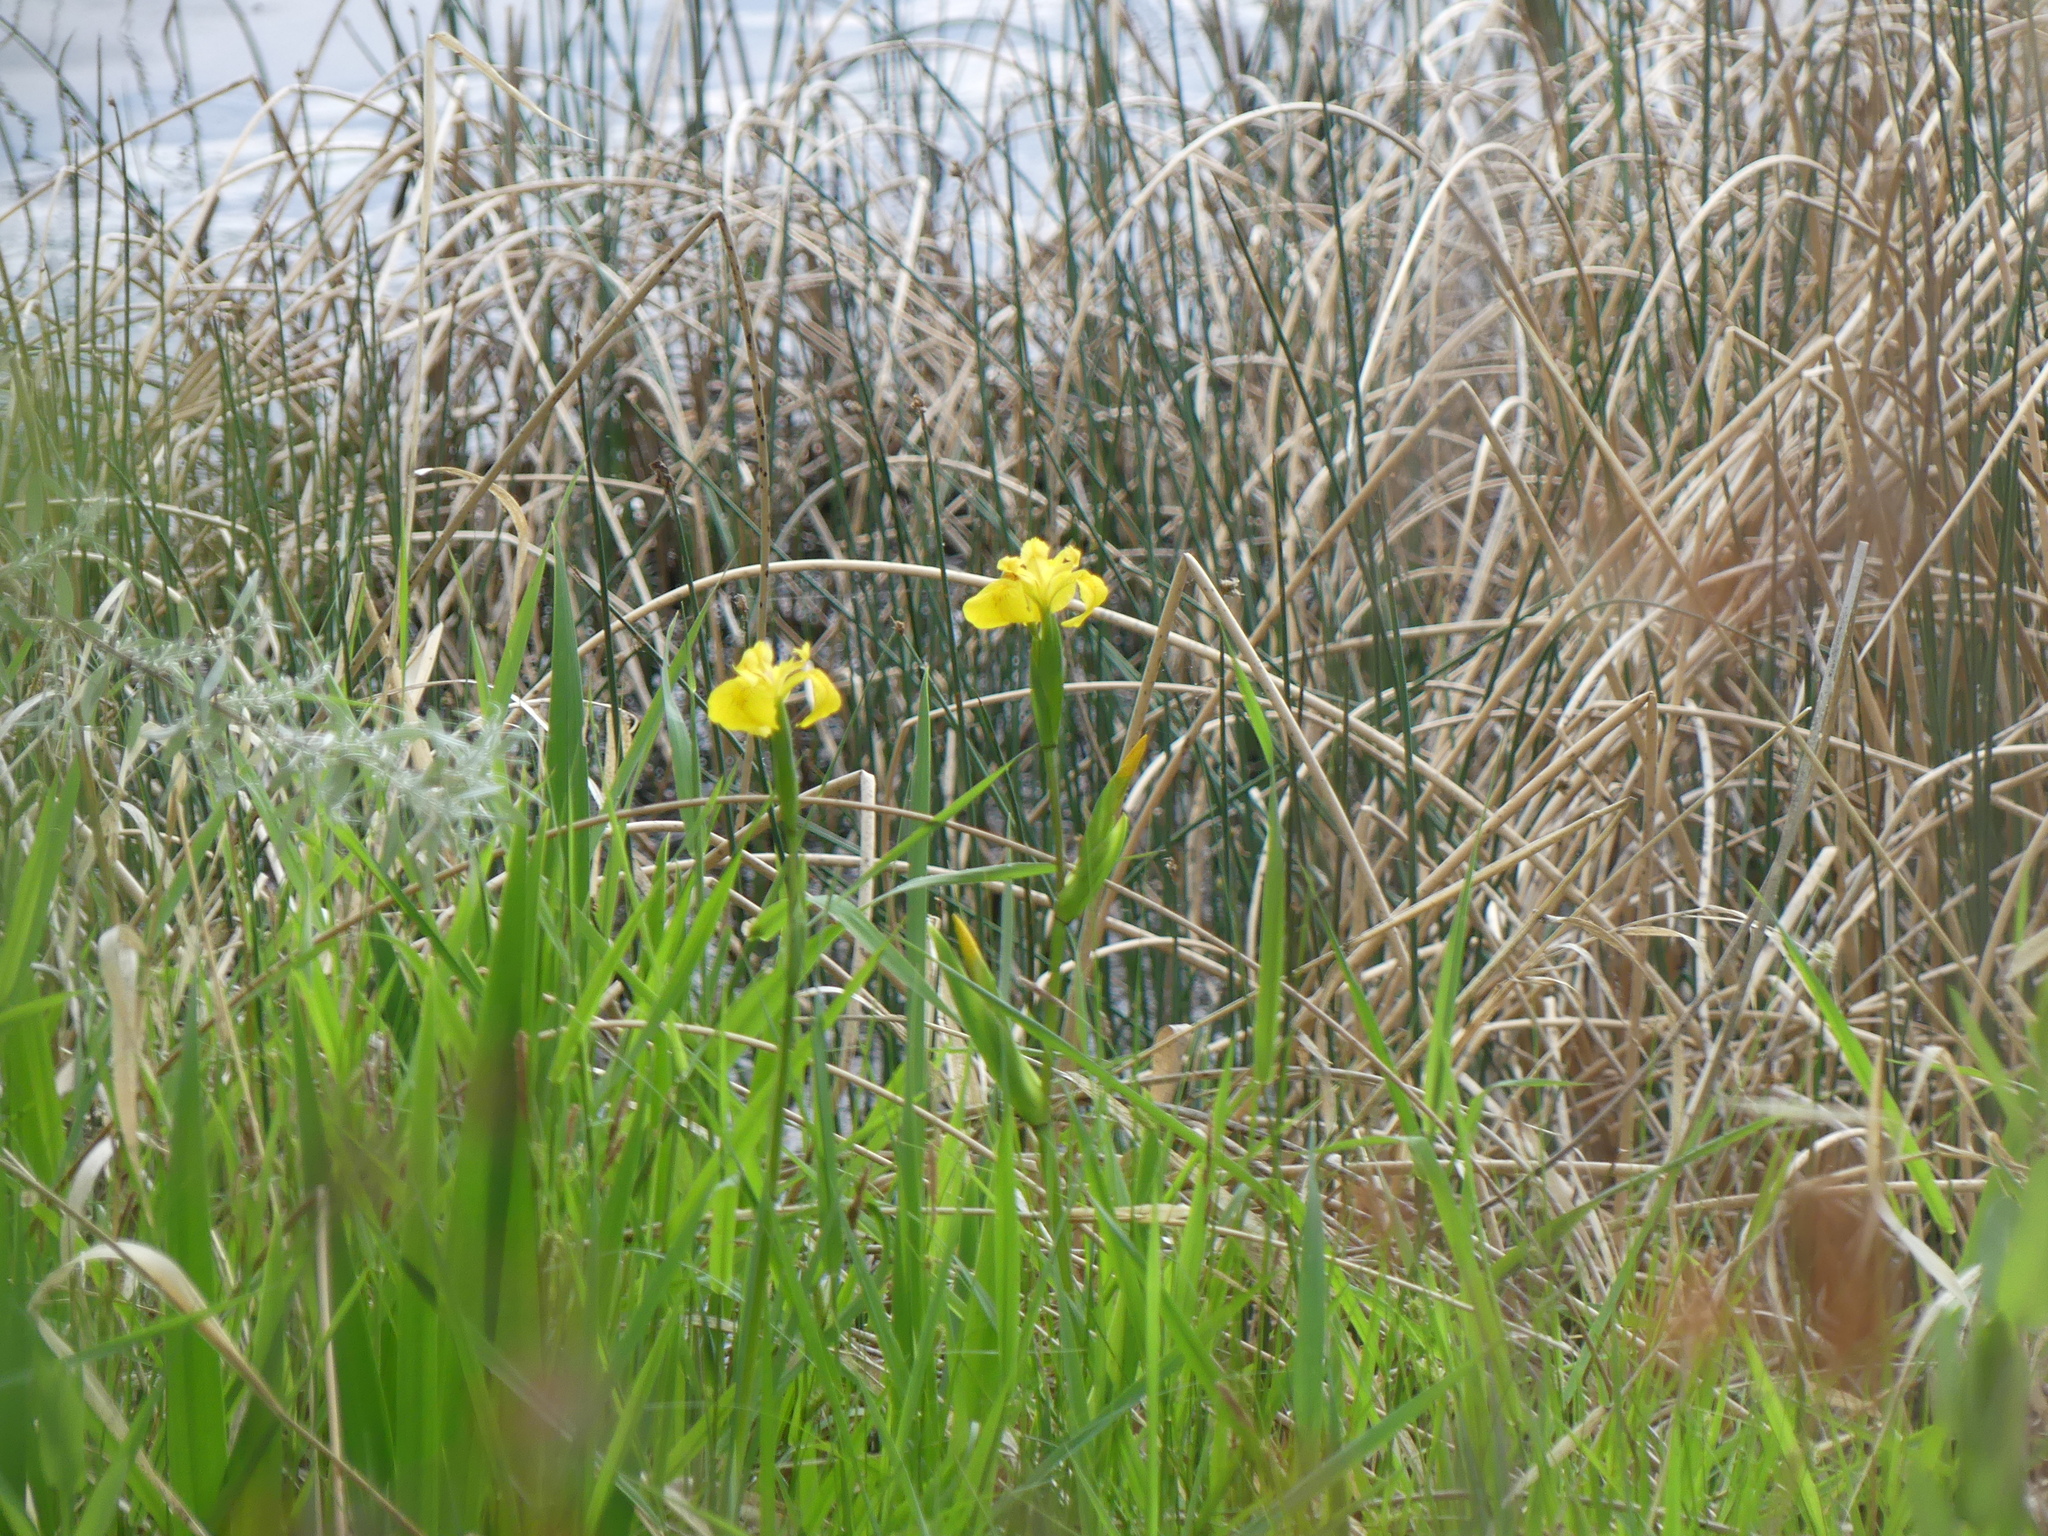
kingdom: Plantae
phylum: Tracheophyta
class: Liliopsida
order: Asparagales
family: Iridaceae
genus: Iris
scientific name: Iris pseudacorus
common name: Yellow flag
